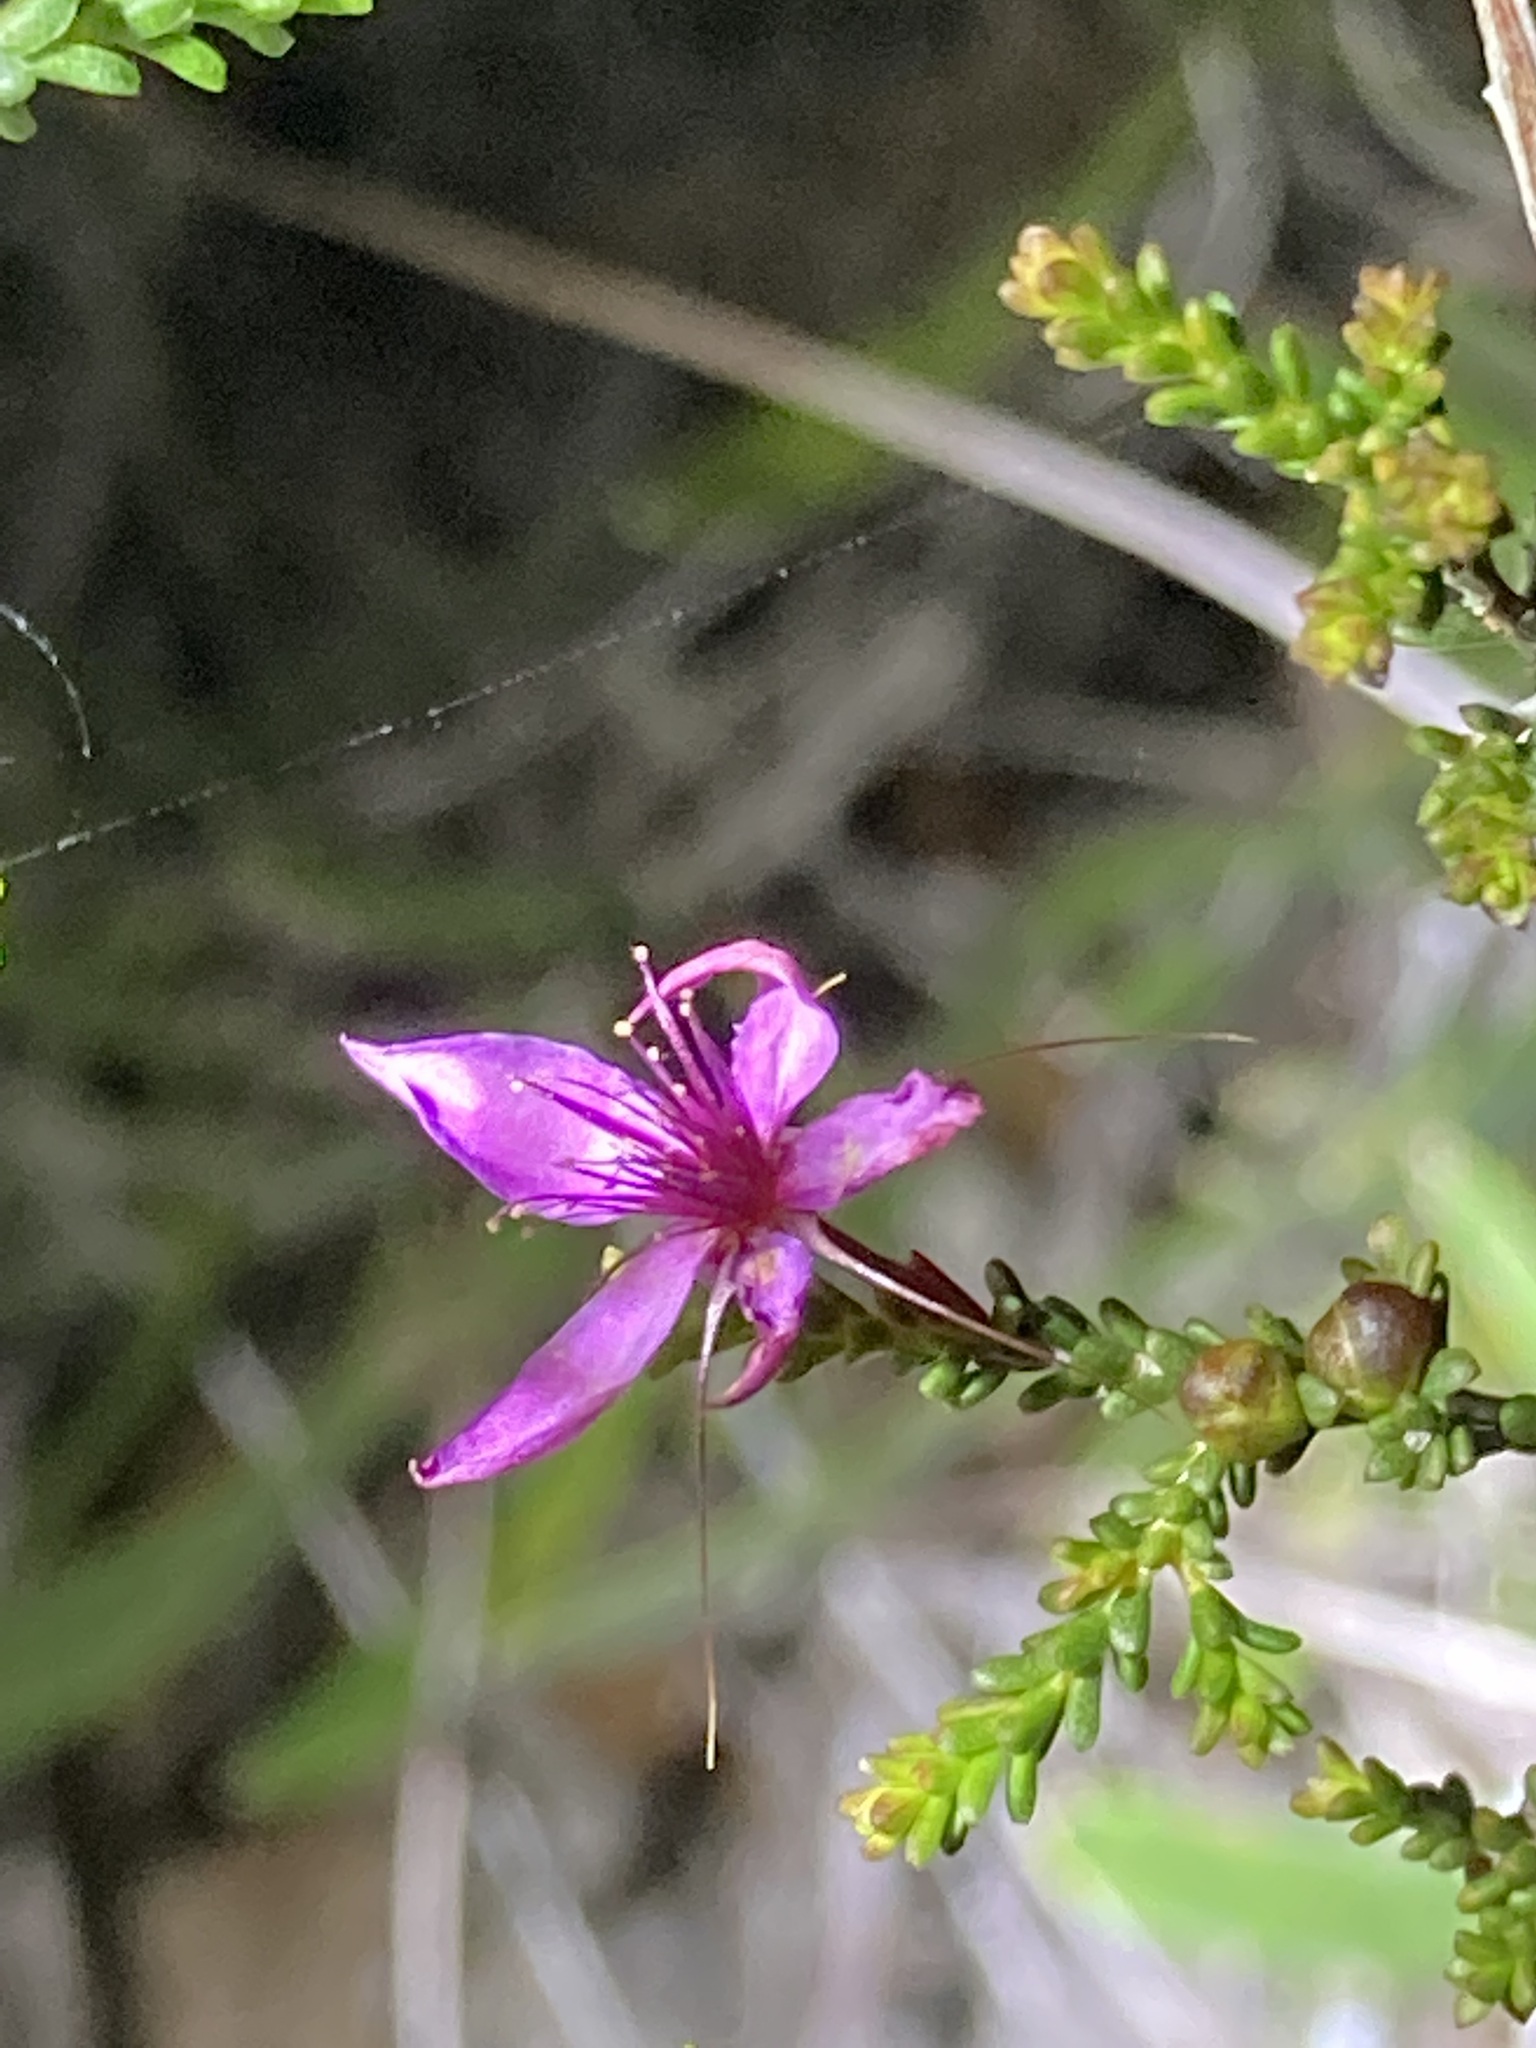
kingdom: Plantae
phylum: Tracheophyta
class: Magnoliopsida
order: Myrtales
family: Myrtaceae
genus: Calytrix
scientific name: Calytrix fraseri
